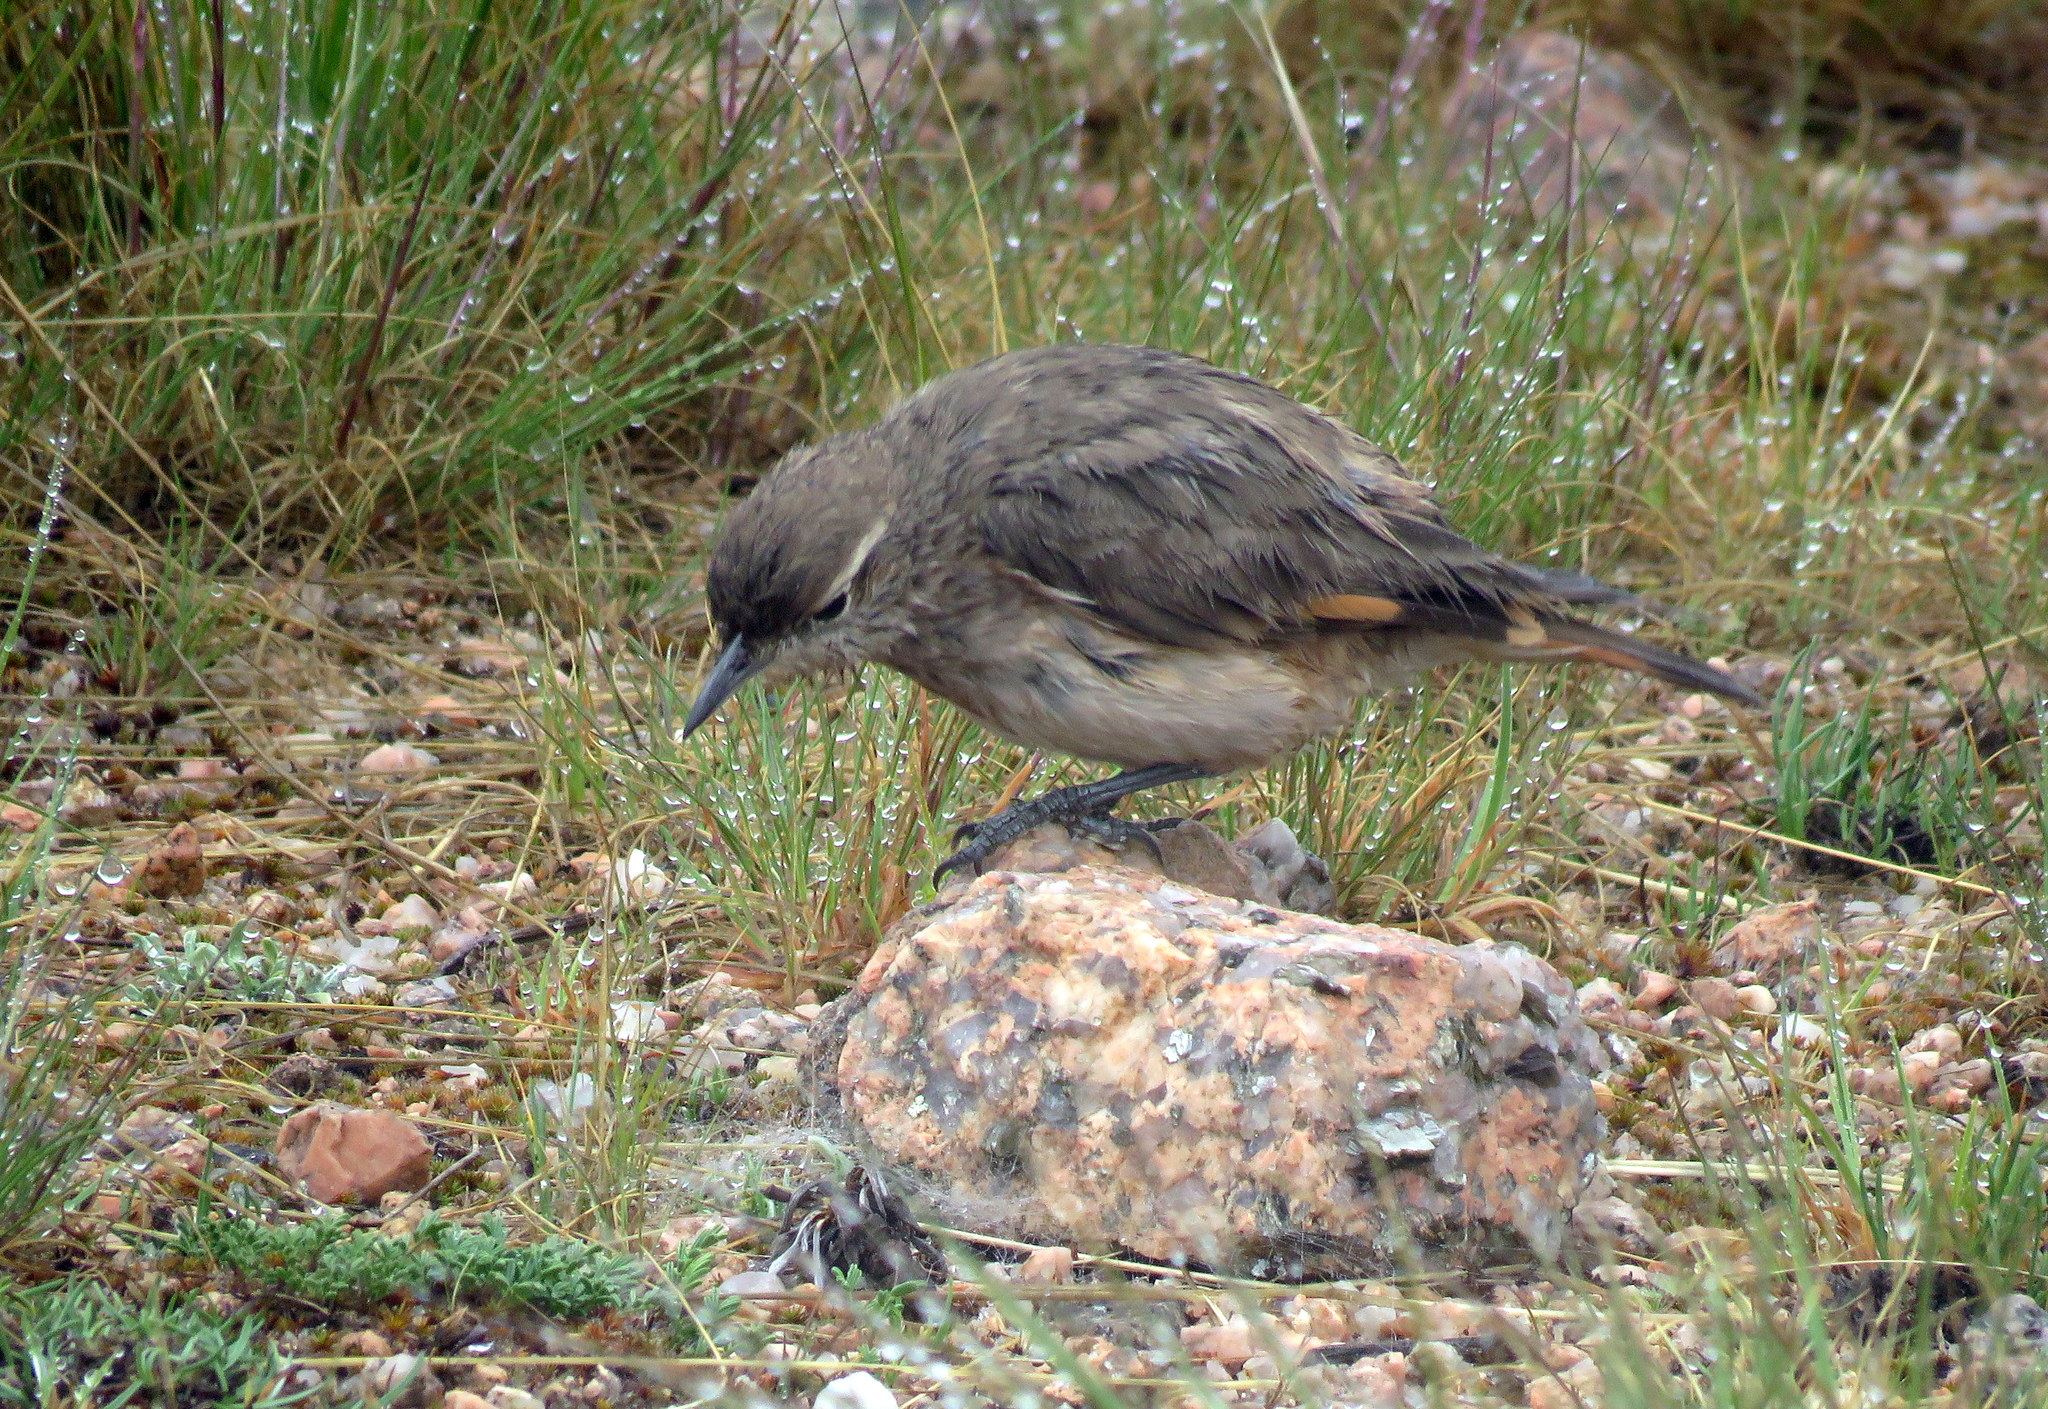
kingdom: Animalia
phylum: Chordata
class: Aves
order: Passeriformes
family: Furnariidae
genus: Geositta
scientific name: Geositta rufipennis
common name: Rufous-banded miner
